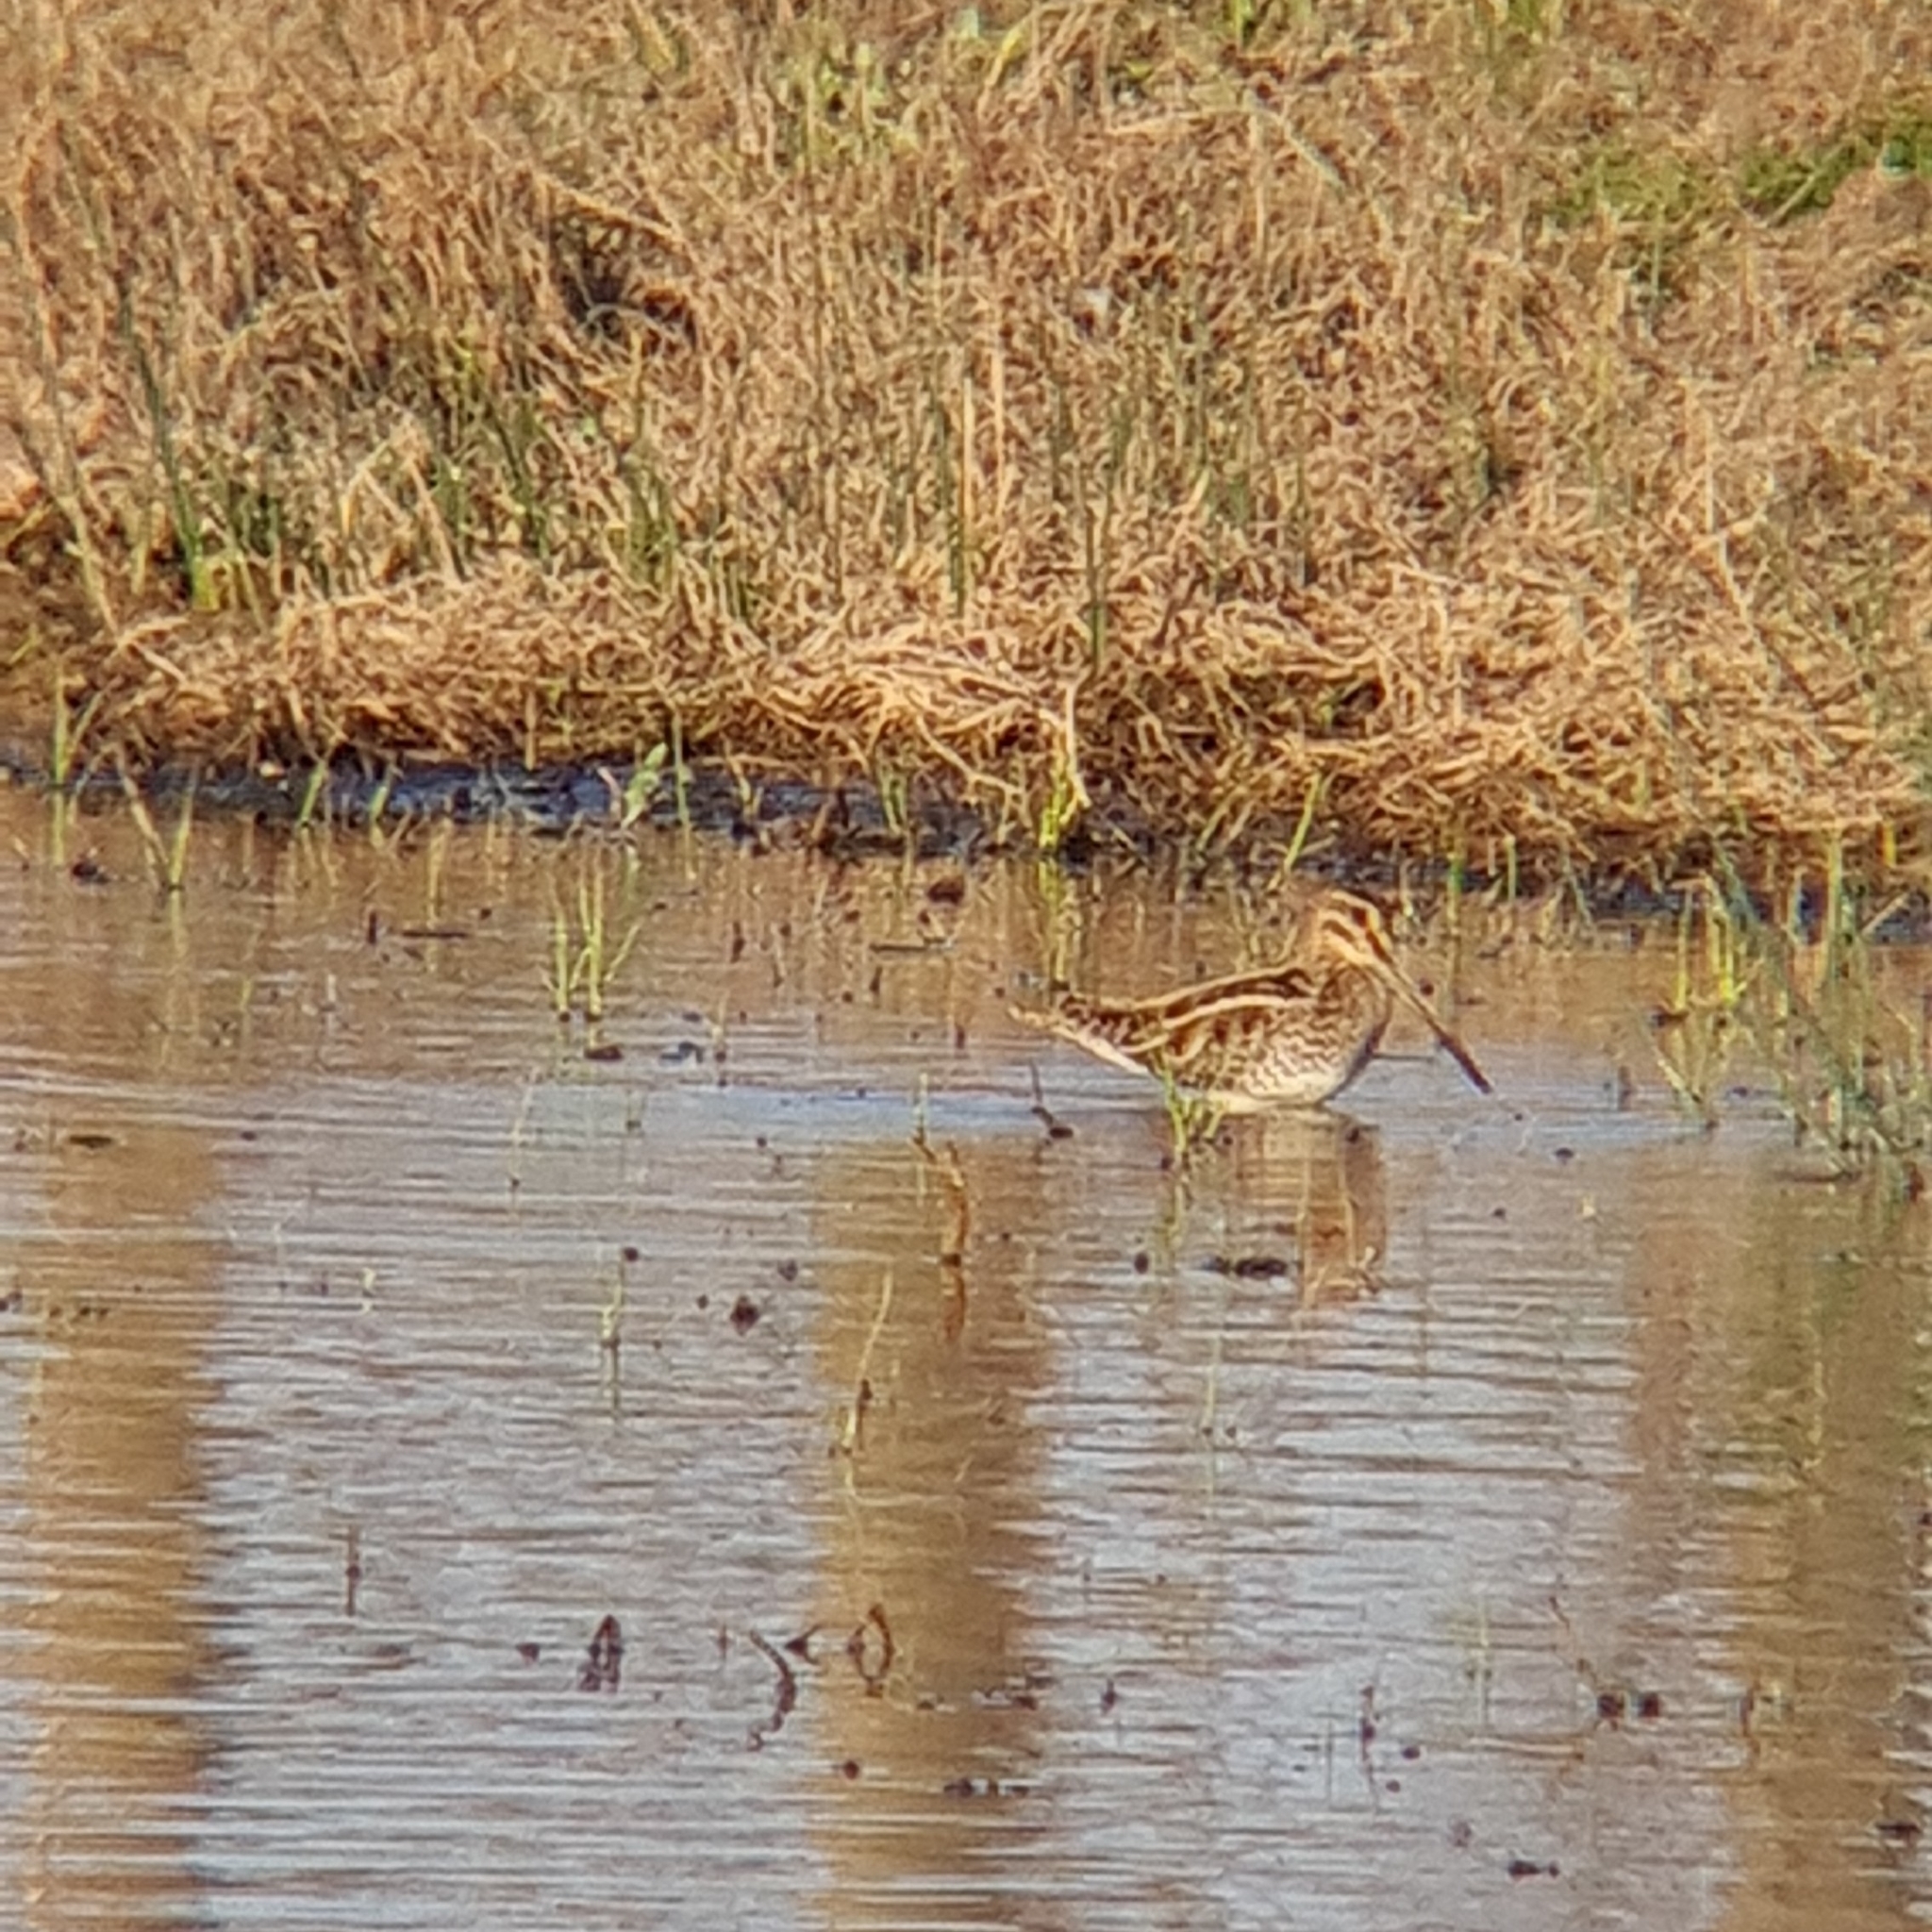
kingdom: Animalia
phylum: Chordata
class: Aves
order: Charadriiformes
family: Scolopacidae
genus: Gallinago
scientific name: Gallinago gallinago
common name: Common snipe
